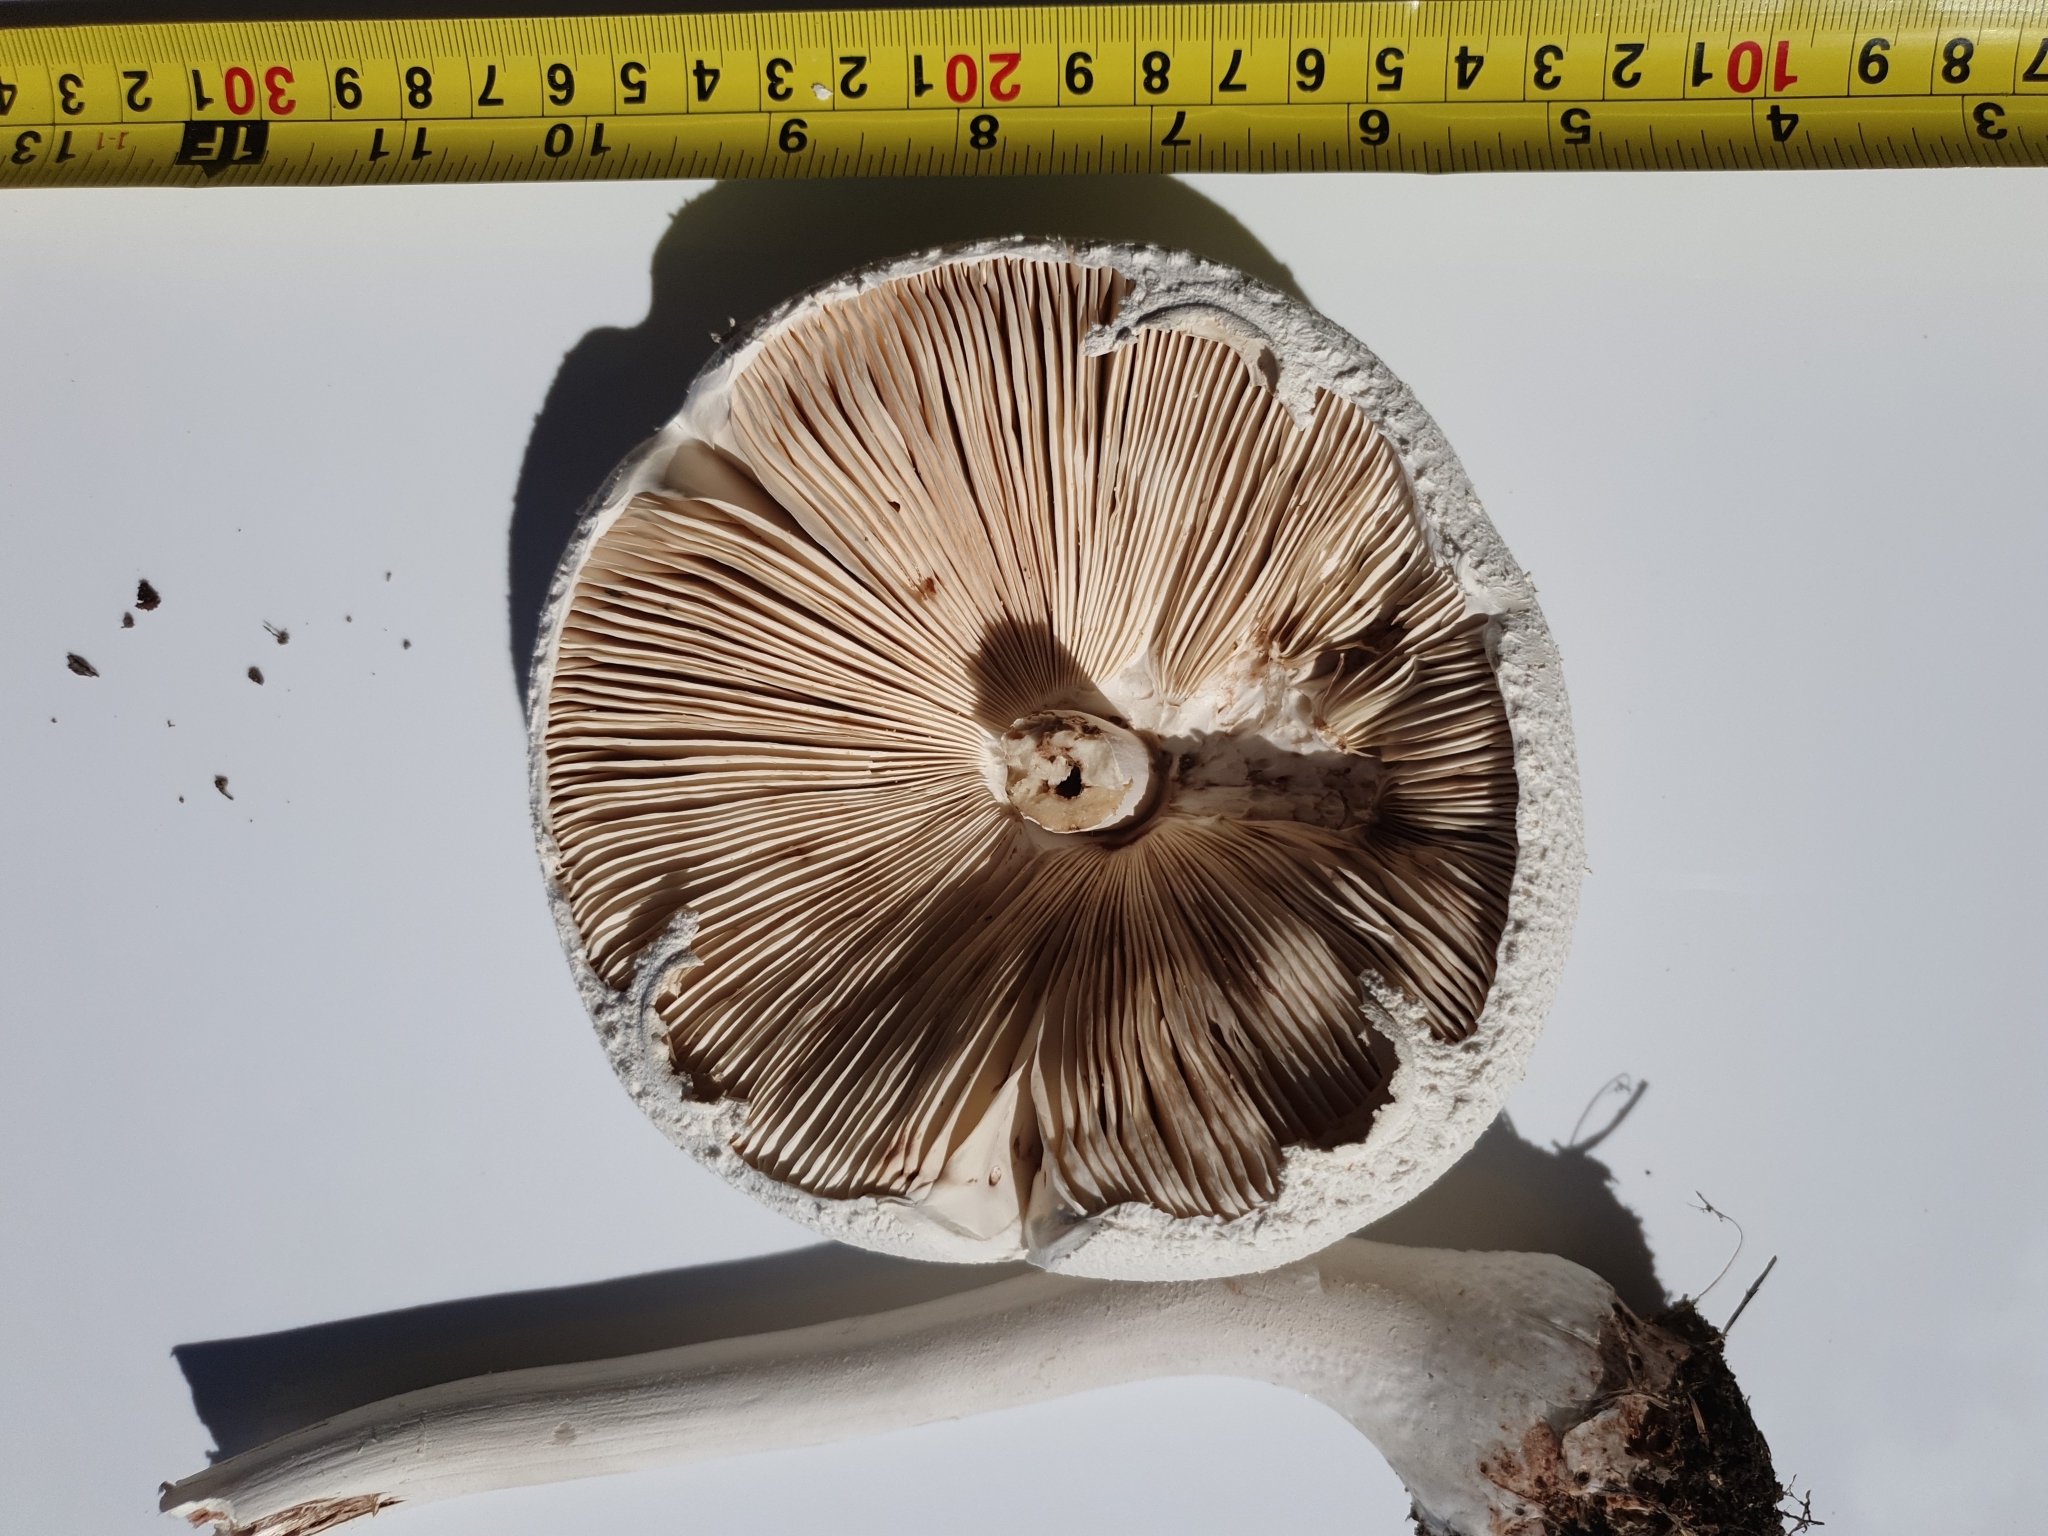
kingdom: Fungi
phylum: Basidiomycota
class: Agaricomycetes
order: Agaricales
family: Agaricaceae
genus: Macrolepiota
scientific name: Macrolepiota dolichaula
